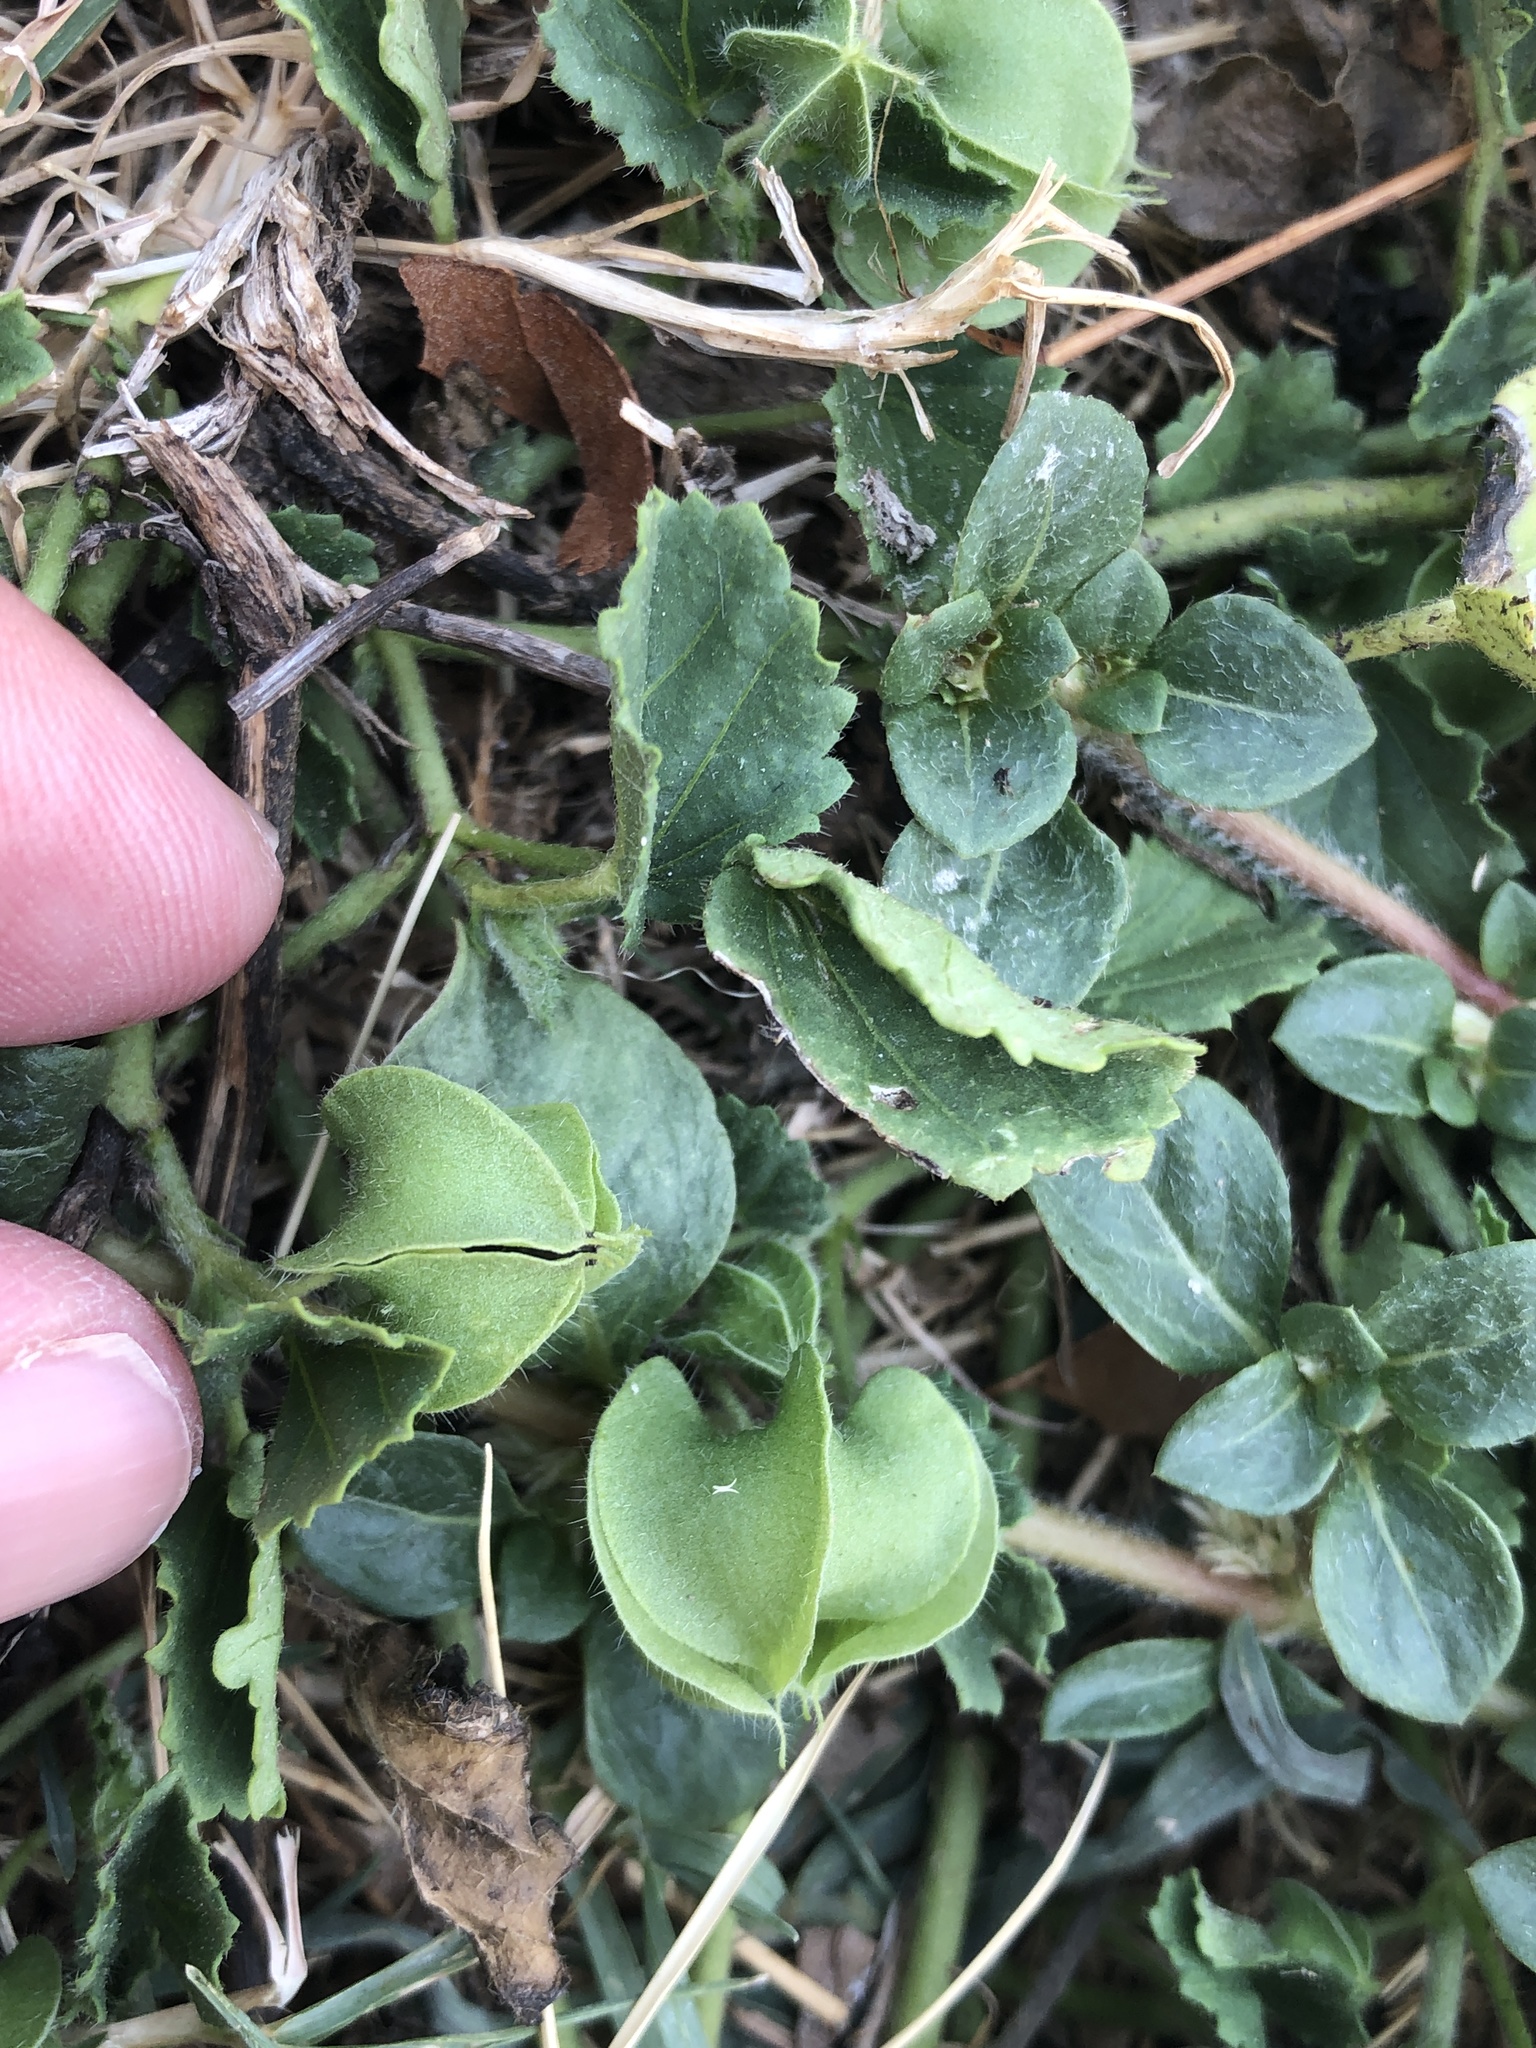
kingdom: Plantae
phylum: Tracheophyta
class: Magnoliopsida
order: Malvales
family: Malvaceae
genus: Rhynchosida
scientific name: Rhynchosida physocalyx
